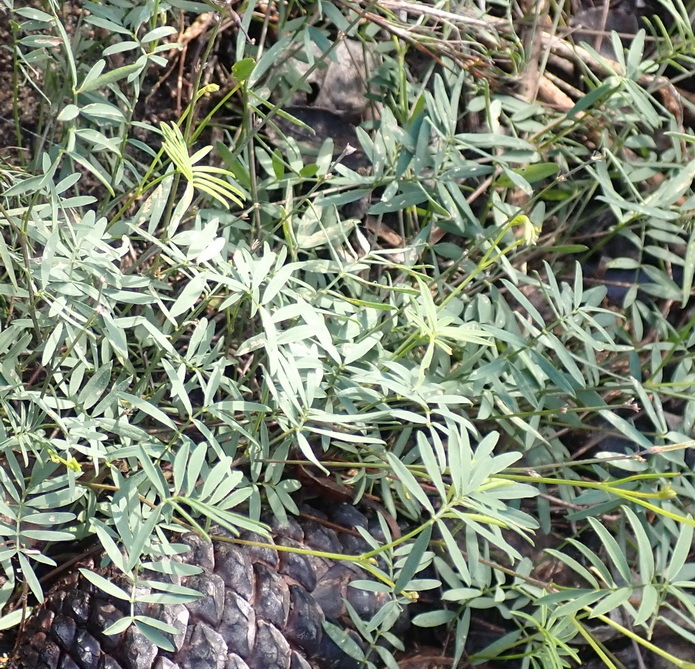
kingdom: Plantae
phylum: Tracheophyta
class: Magnoliopsida
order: Fabales
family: Fabaceae
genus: Tephrosia
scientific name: Tephrosia capensis
